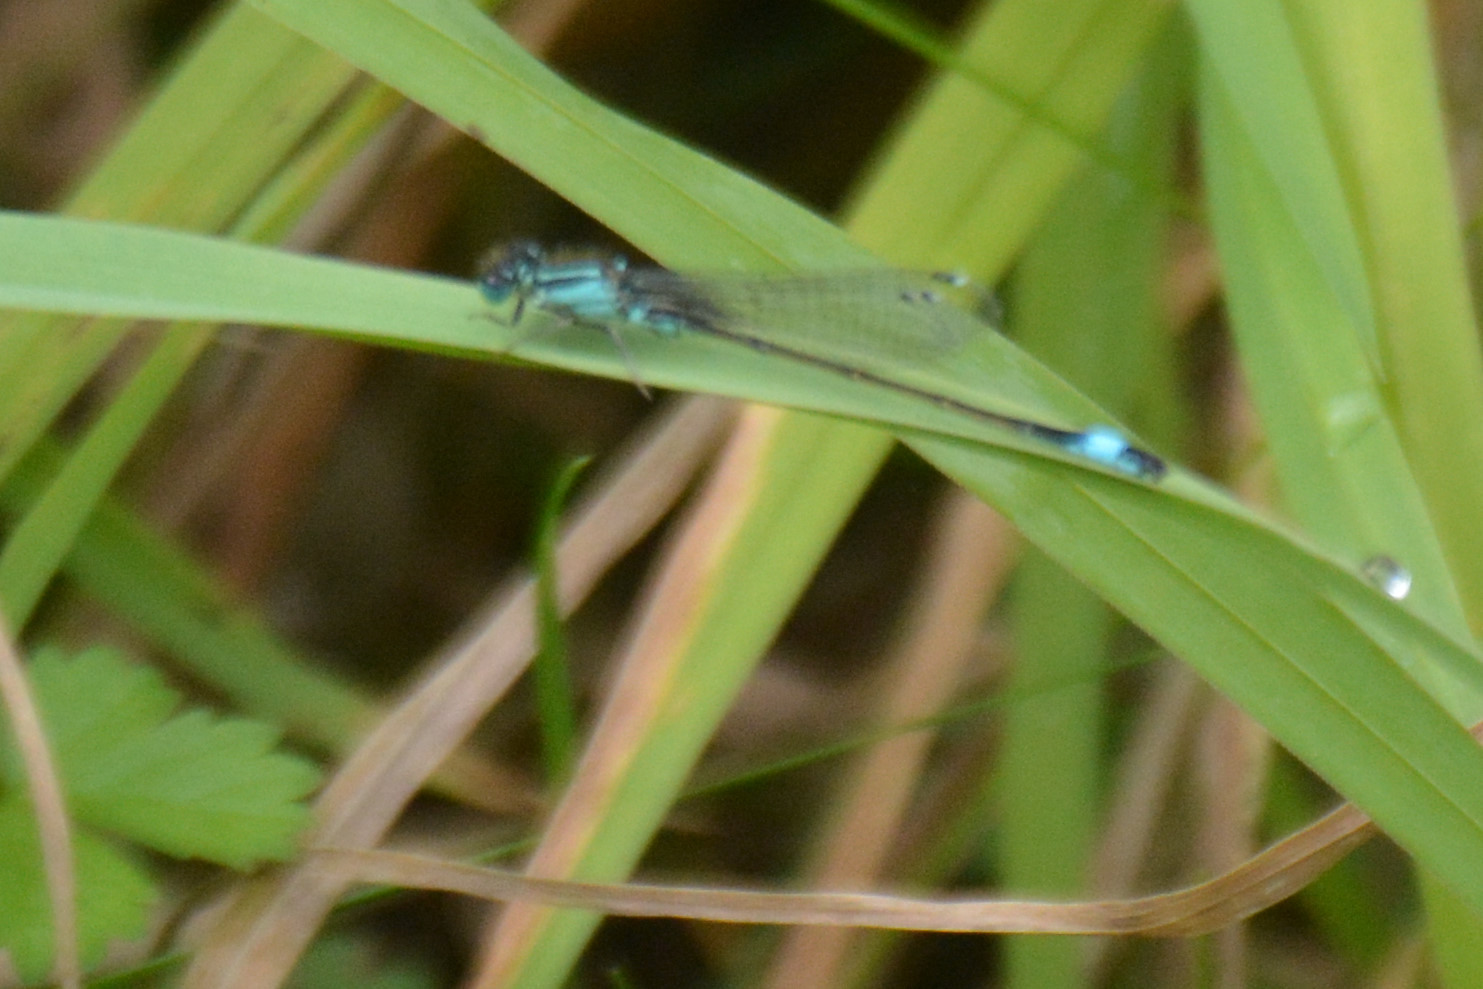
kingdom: Animalia
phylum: Arthropoda
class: Insecta
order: Odonata
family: Coenagrionidae
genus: Ischnura
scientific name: Ischnura elegans
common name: Blue-tailed damselfly
